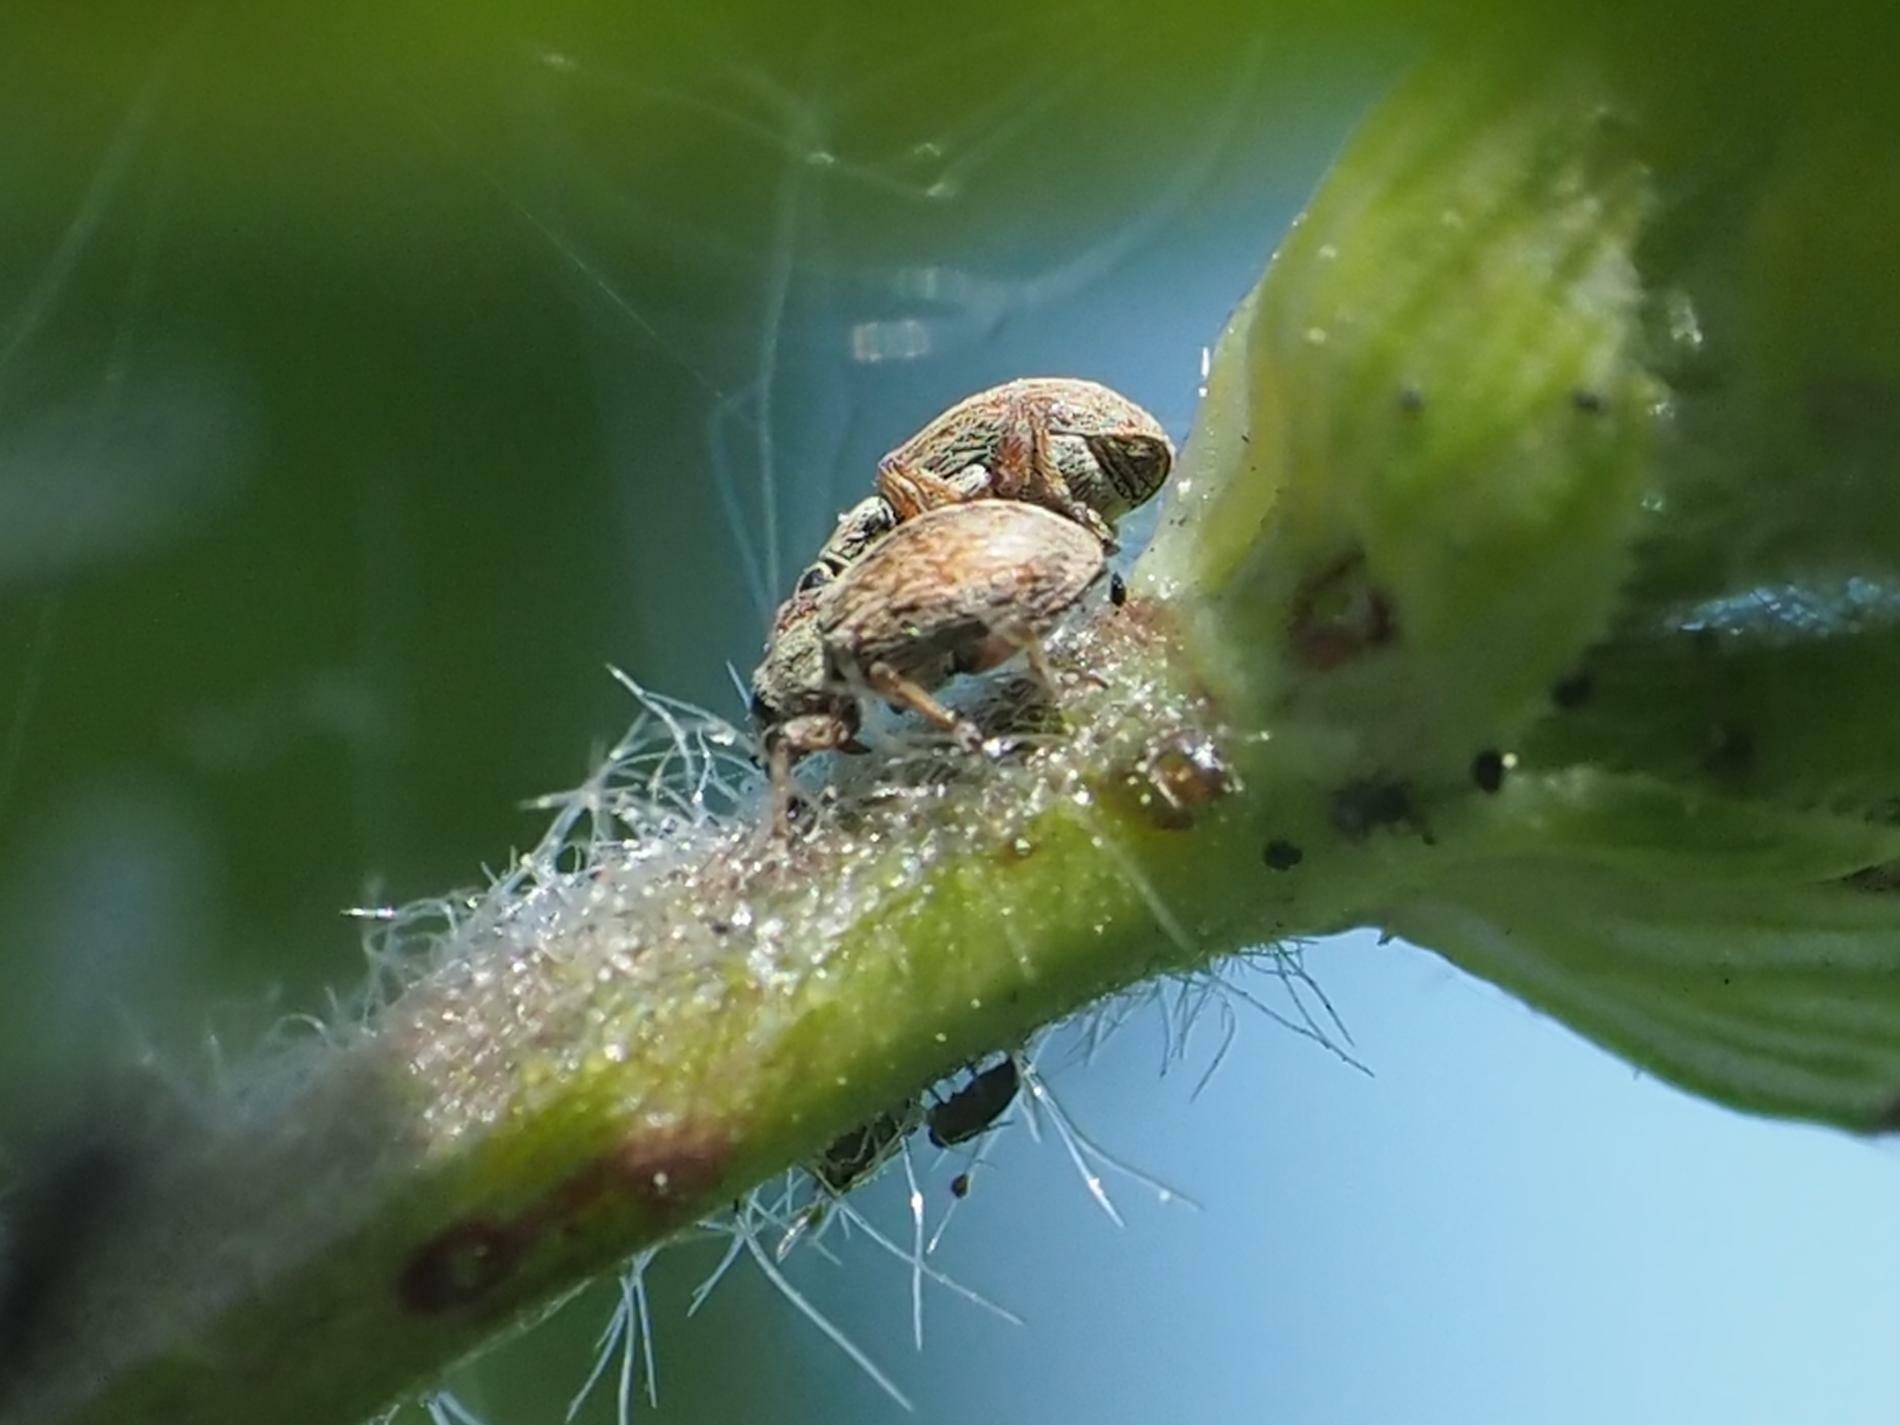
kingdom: Animalia
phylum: Arthropoda
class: Insecta
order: Coleoptera
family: Apionidae
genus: Malvapion
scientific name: Malvapion malvae
